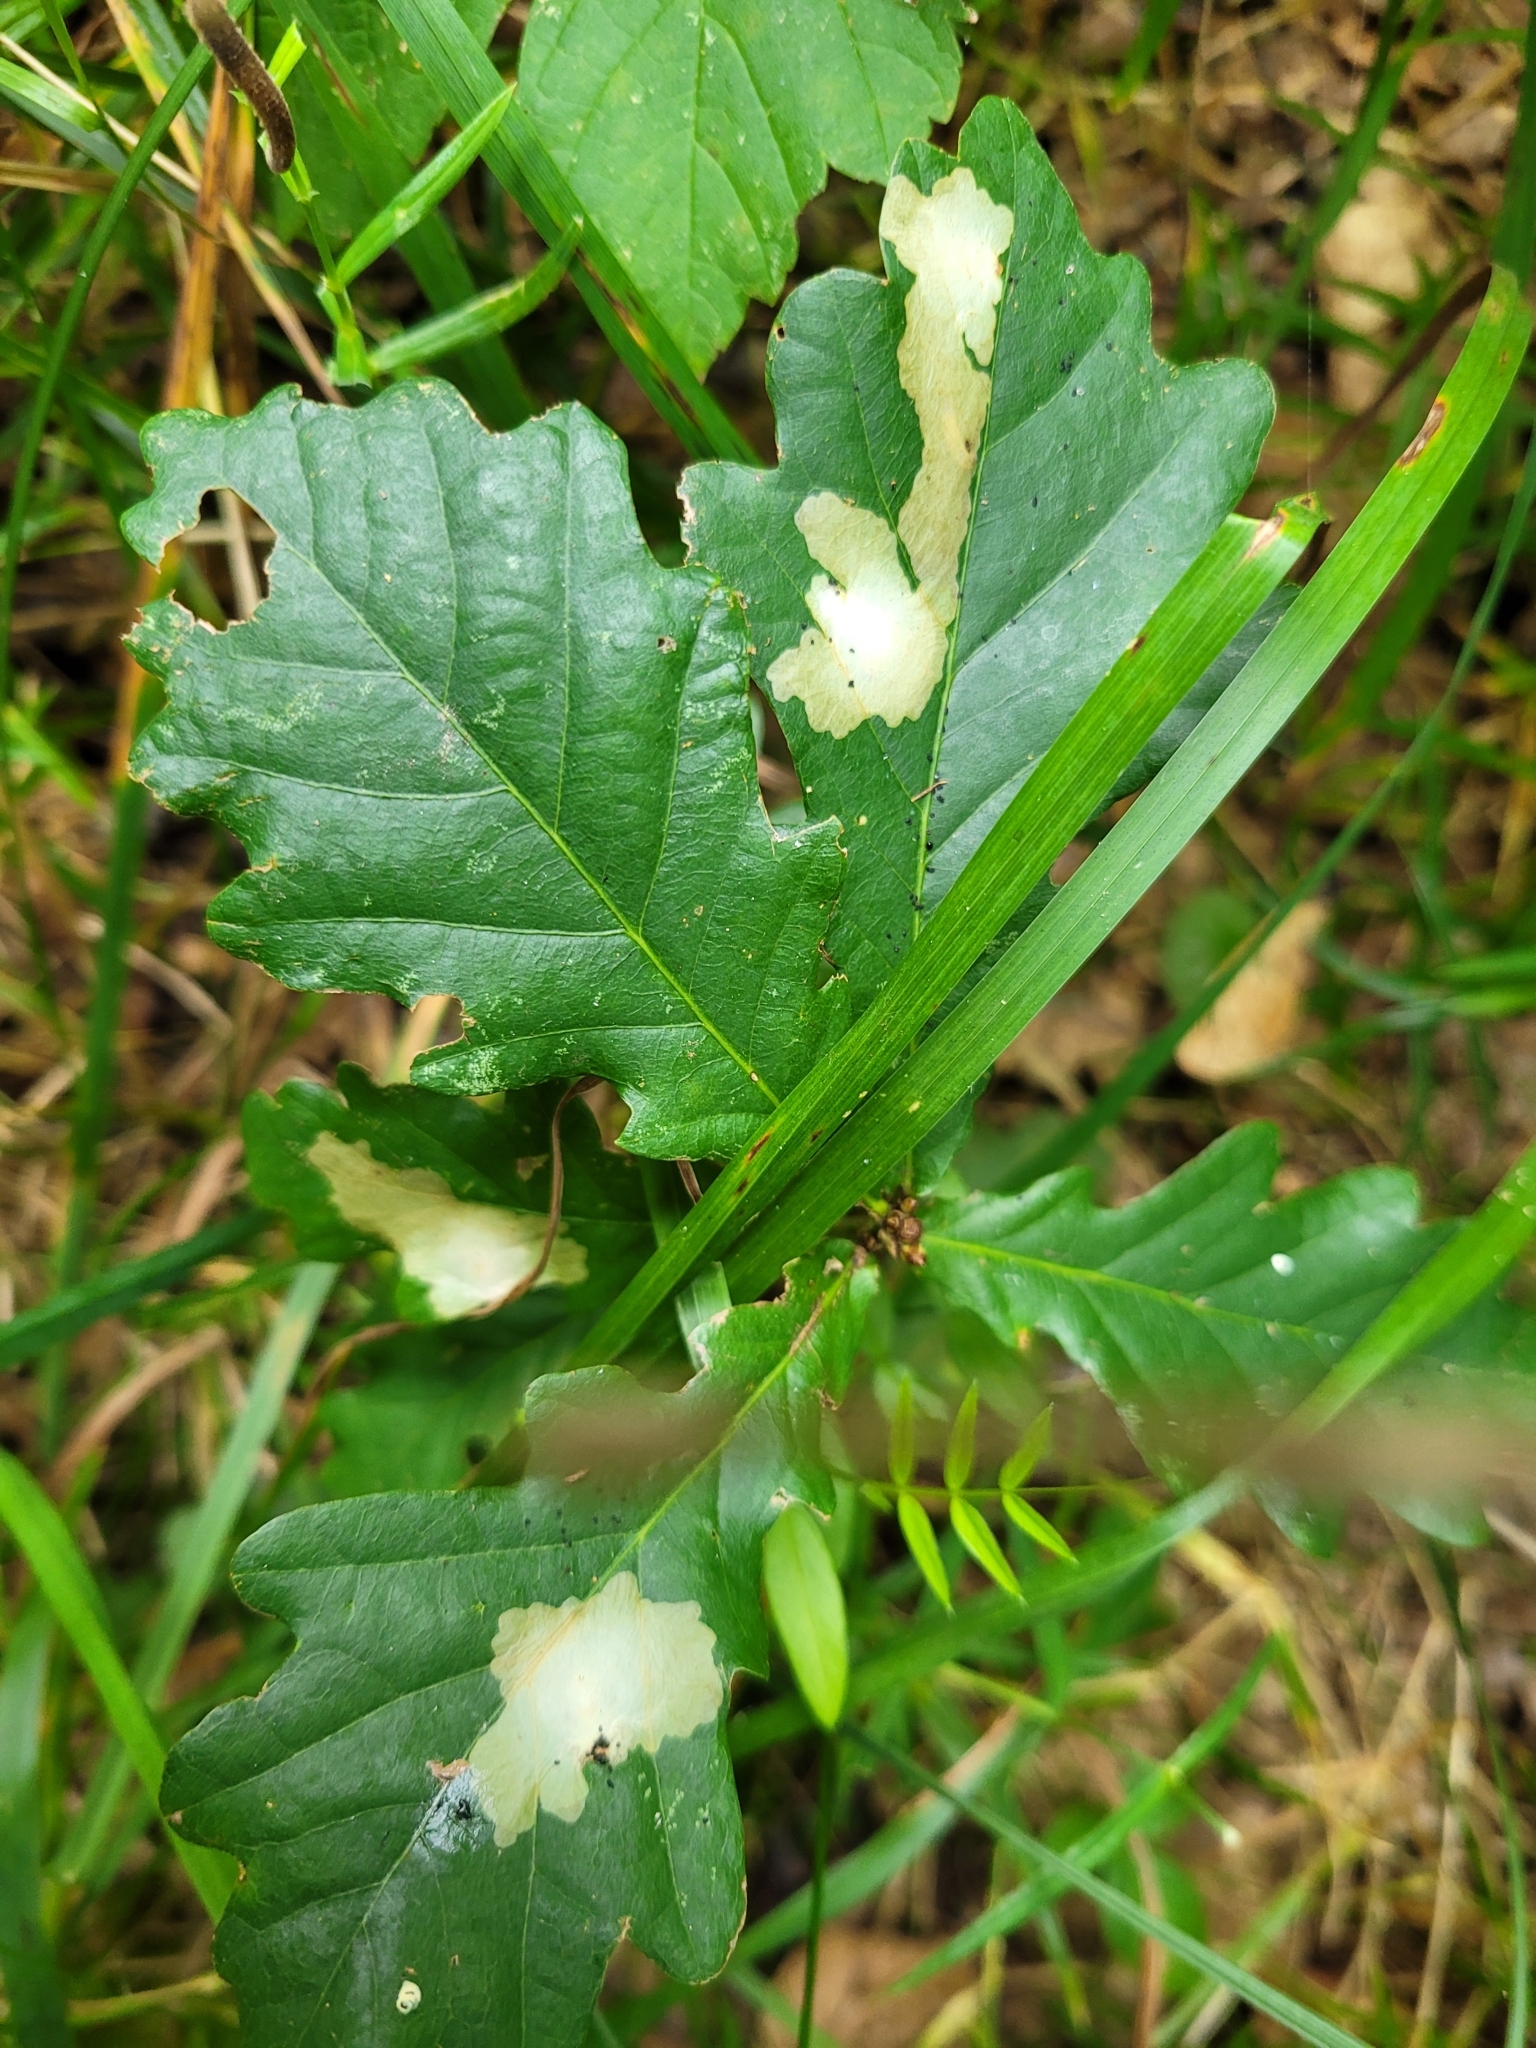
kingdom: Animalia
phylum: Arthropoda
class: Insecta
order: Lepidoptera
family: Tischeriidae
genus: Tischeria
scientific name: Tischeria ekebladella
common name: Oak carl
